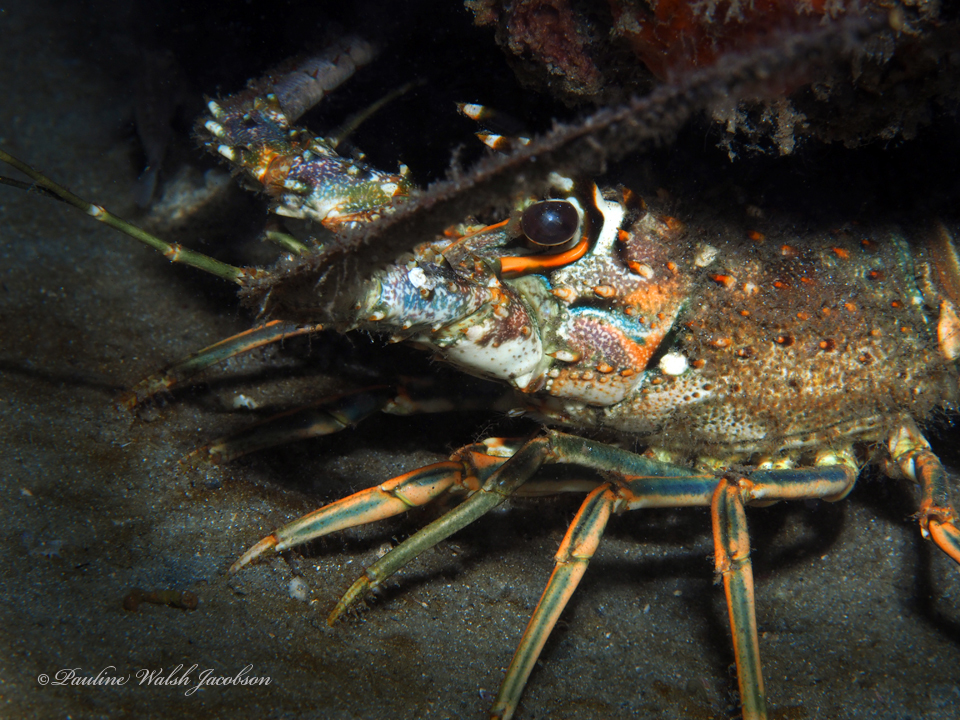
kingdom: Animalia
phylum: Arthropoda
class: Malacostraca
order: Decapoda
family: Palinuridae
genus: Panulirus
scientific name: Panulirus argus
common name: Caribbean spiny lobster
